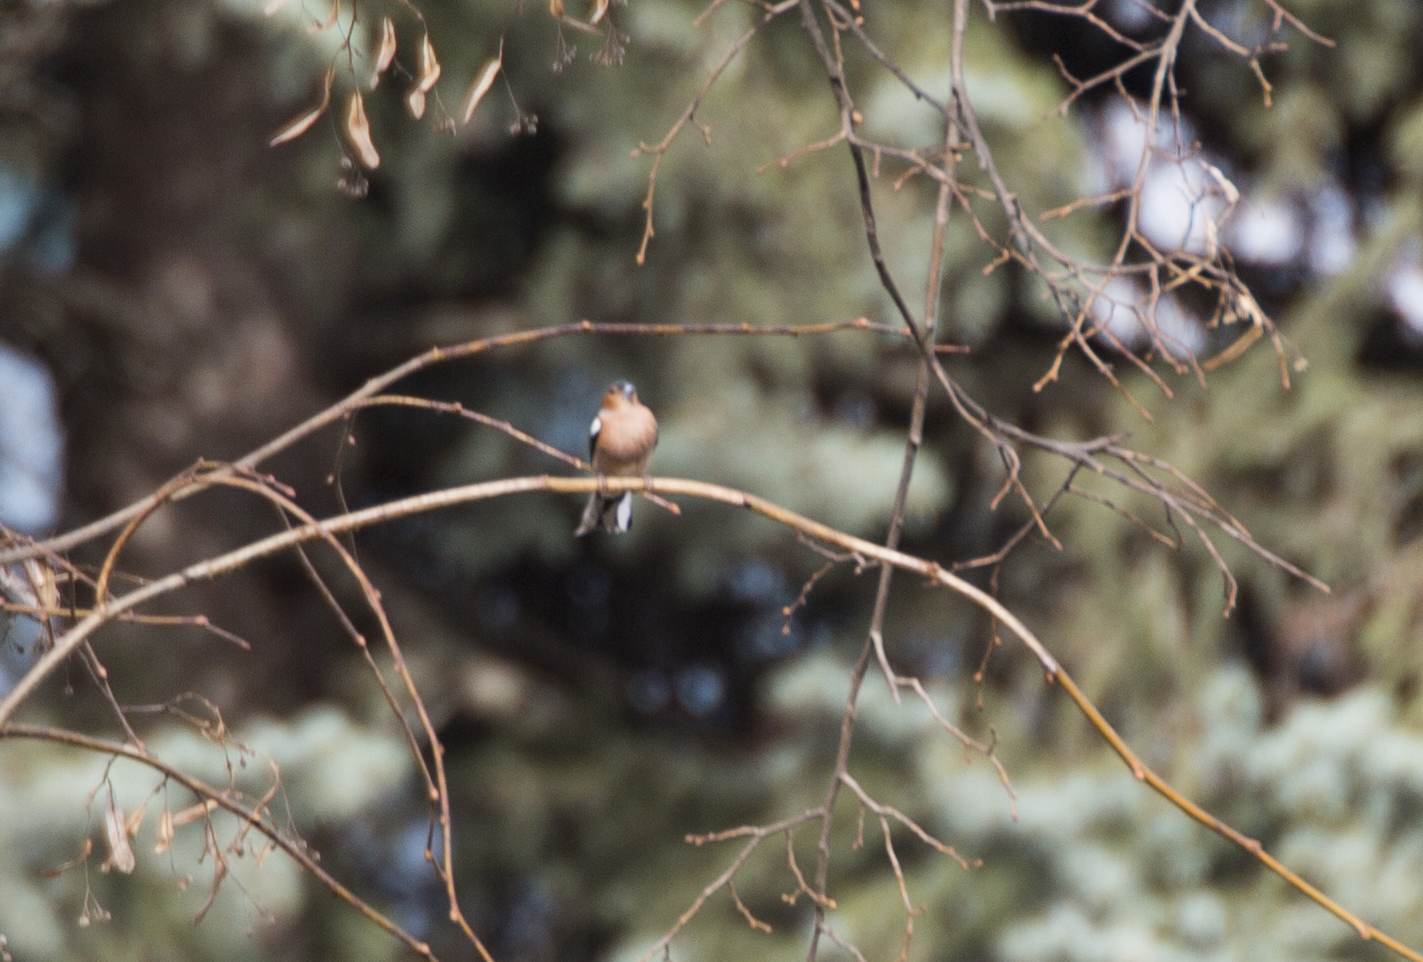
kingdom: Animalia
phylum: Chordata
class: Aves
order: Passeriformes
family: Fringillidae
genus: Fringilla
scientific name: Fringilla coelebs
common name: Common chaffinch
